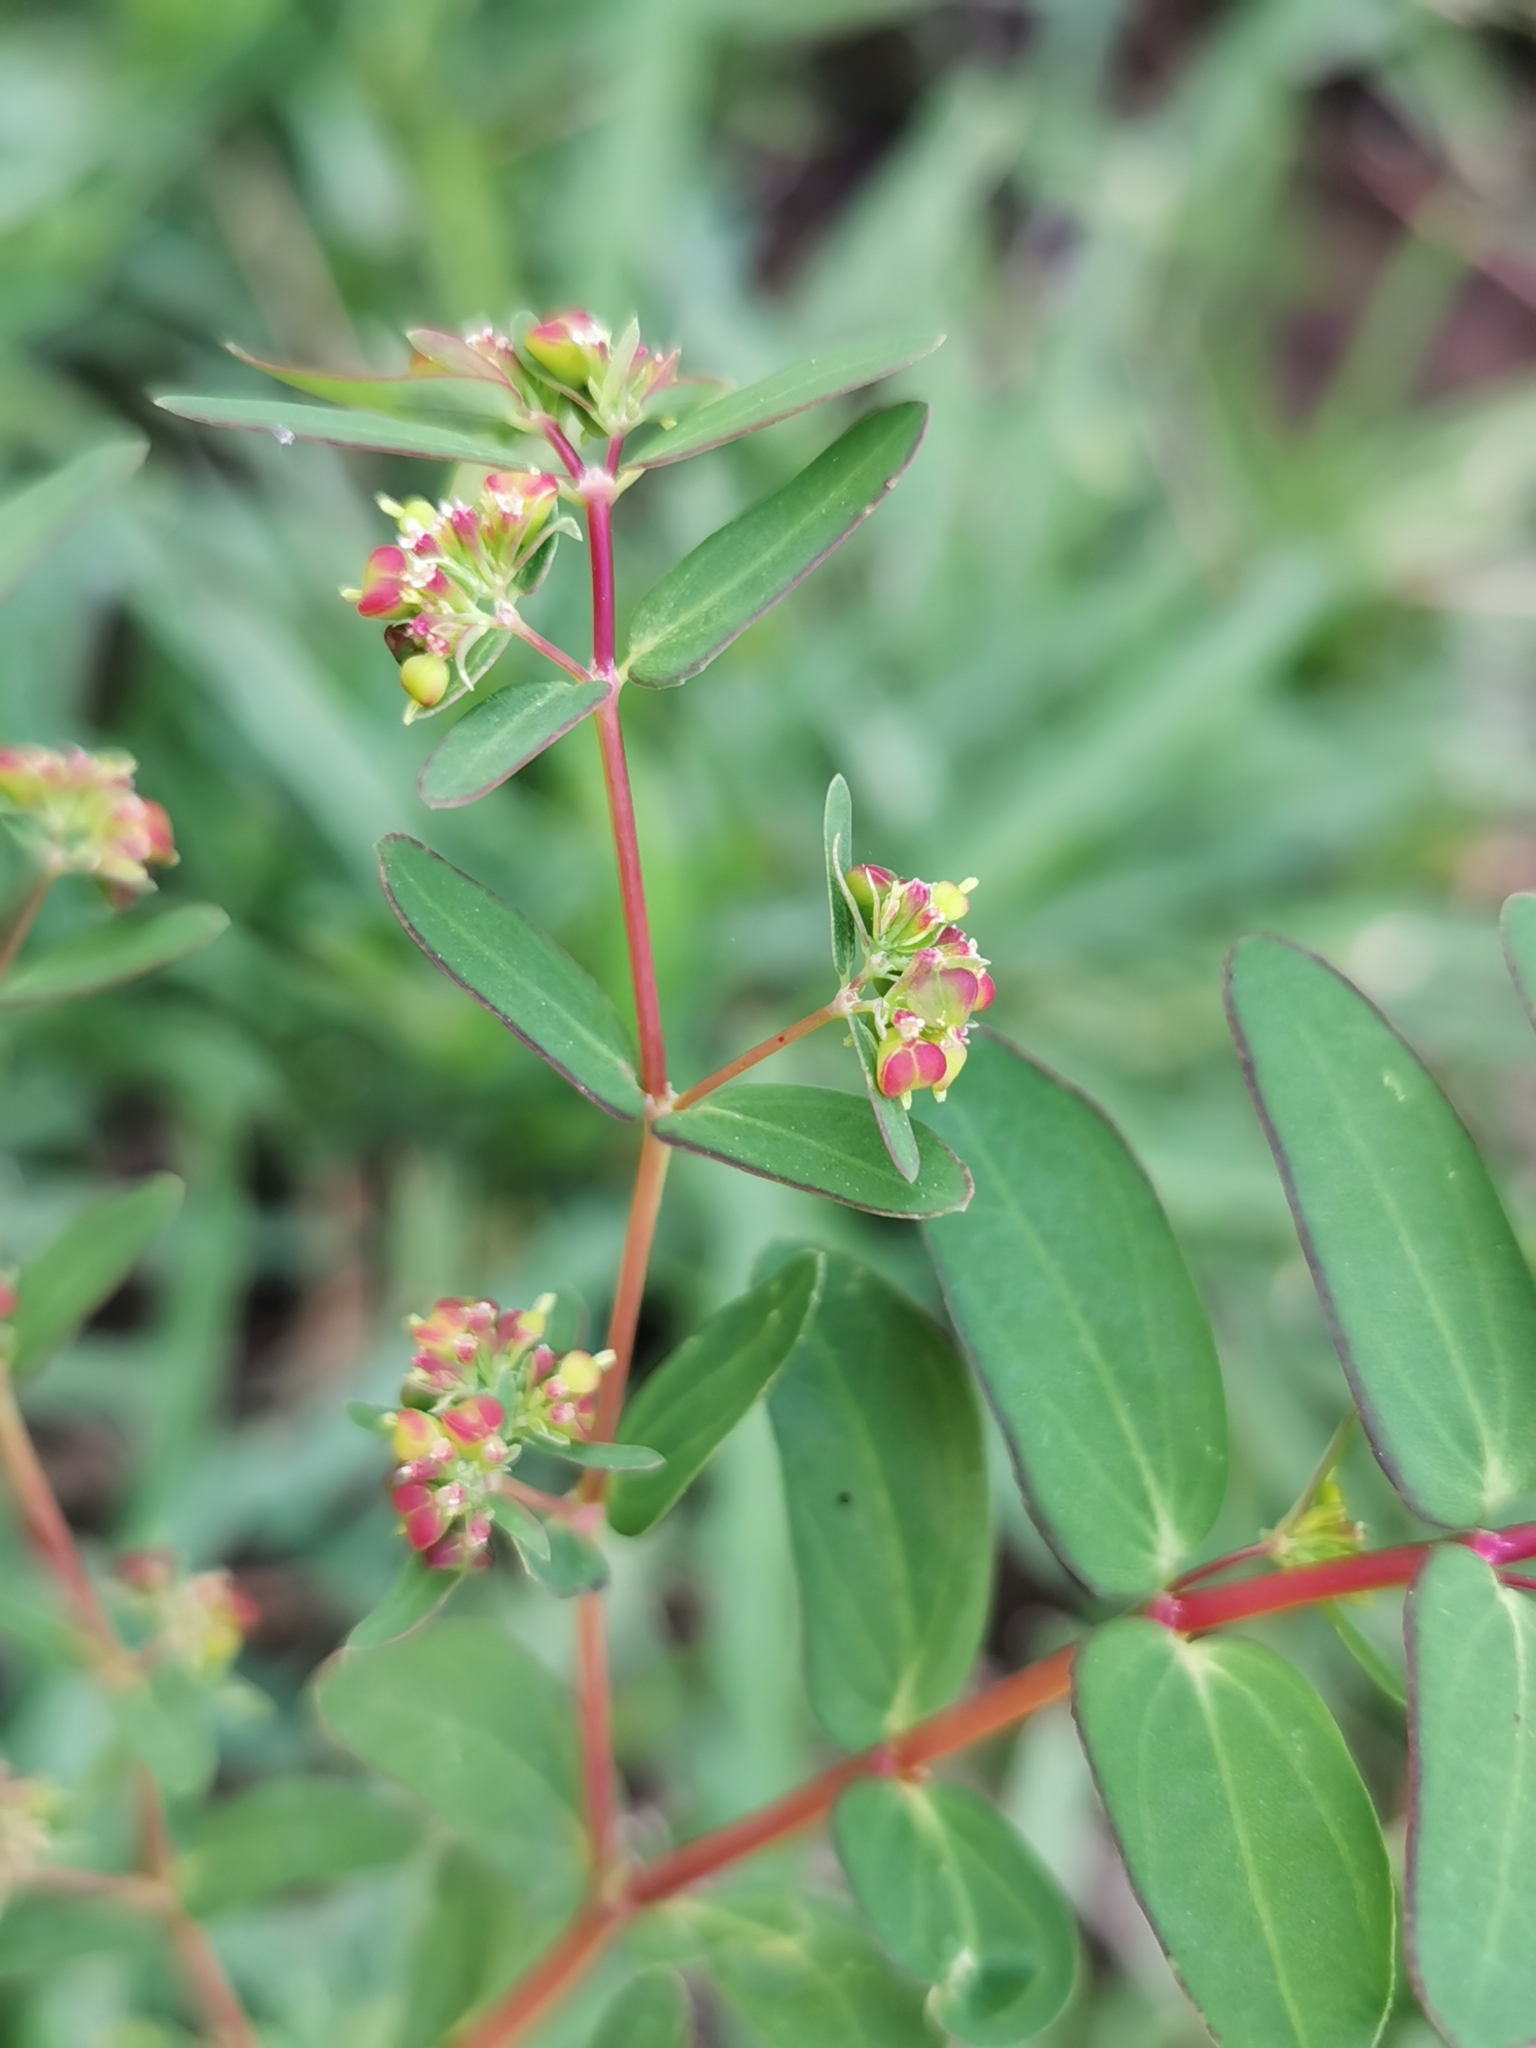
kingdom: Plantae
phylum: Tracheophyta
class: Magnoliopsida
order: Malpighiales
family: Euphorbiaceae
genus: Euphorbia
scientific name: Euphorbia nutans
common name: Eyebane
